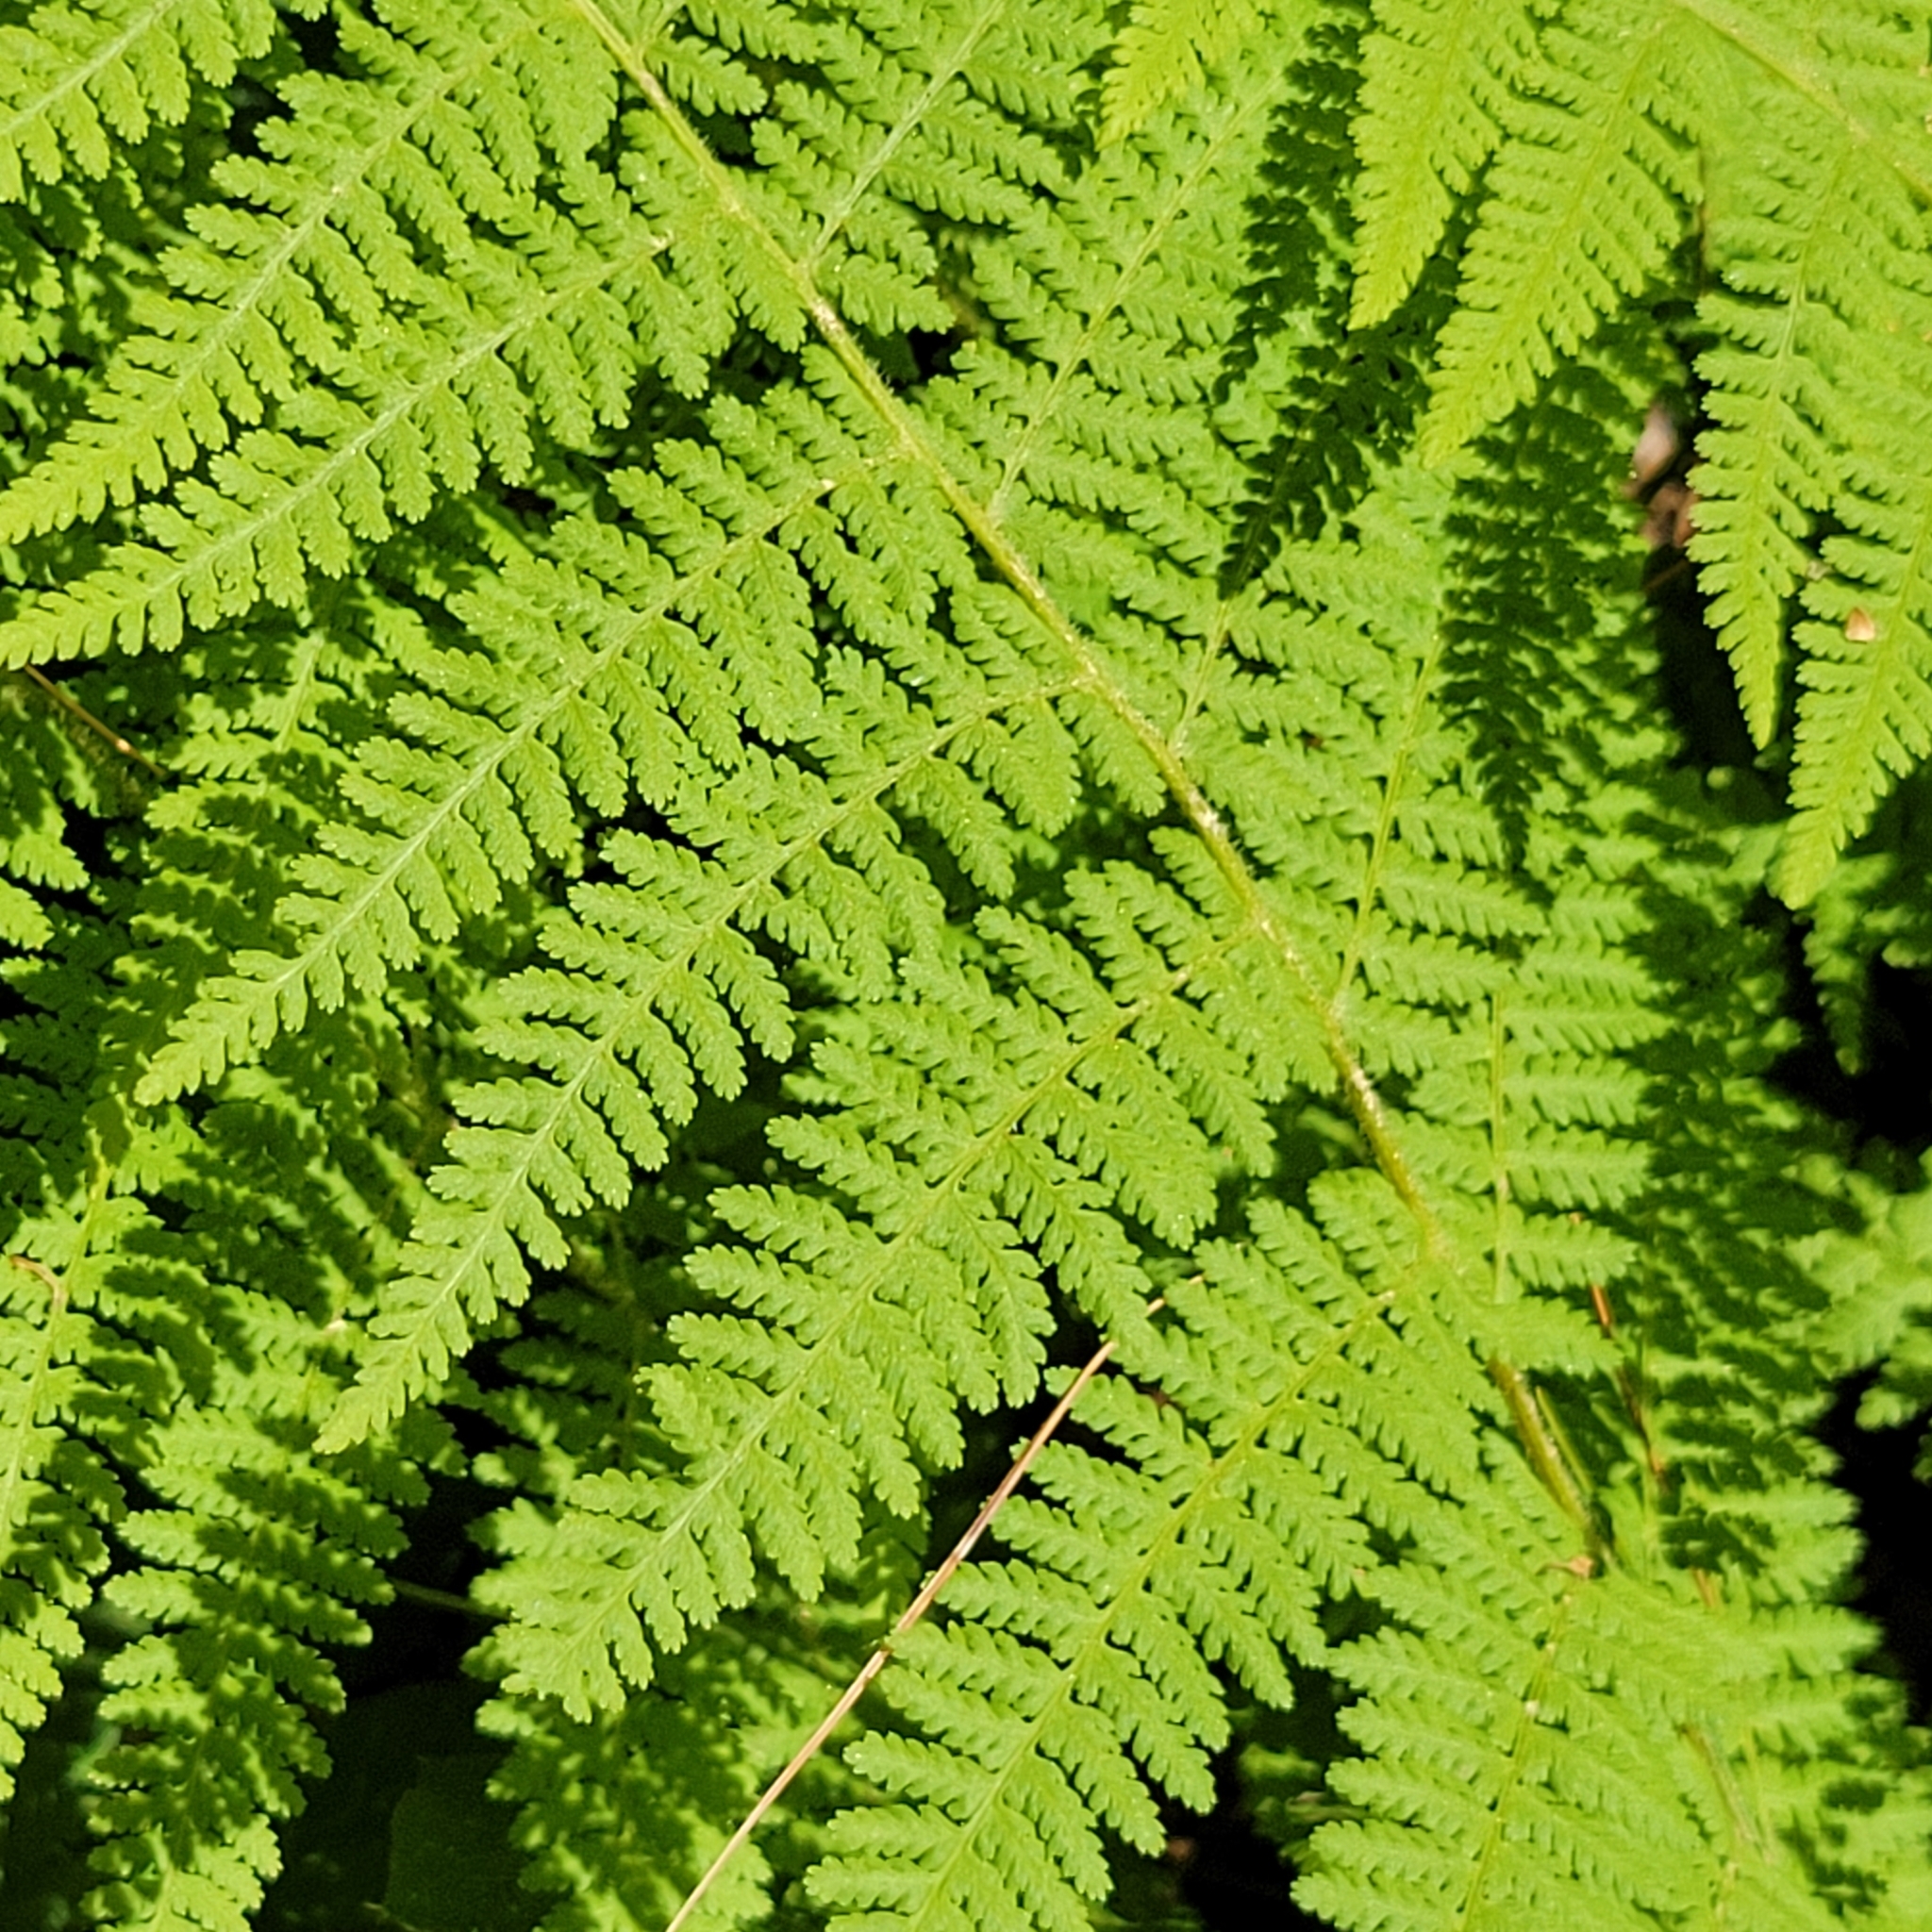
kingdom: Plantae
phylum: Tracheophyta
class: Polypodiopsida
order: Polypodiales
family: Dennstaedtiaceae
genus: Sitobolium
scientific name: Sitobolium punctilobum
